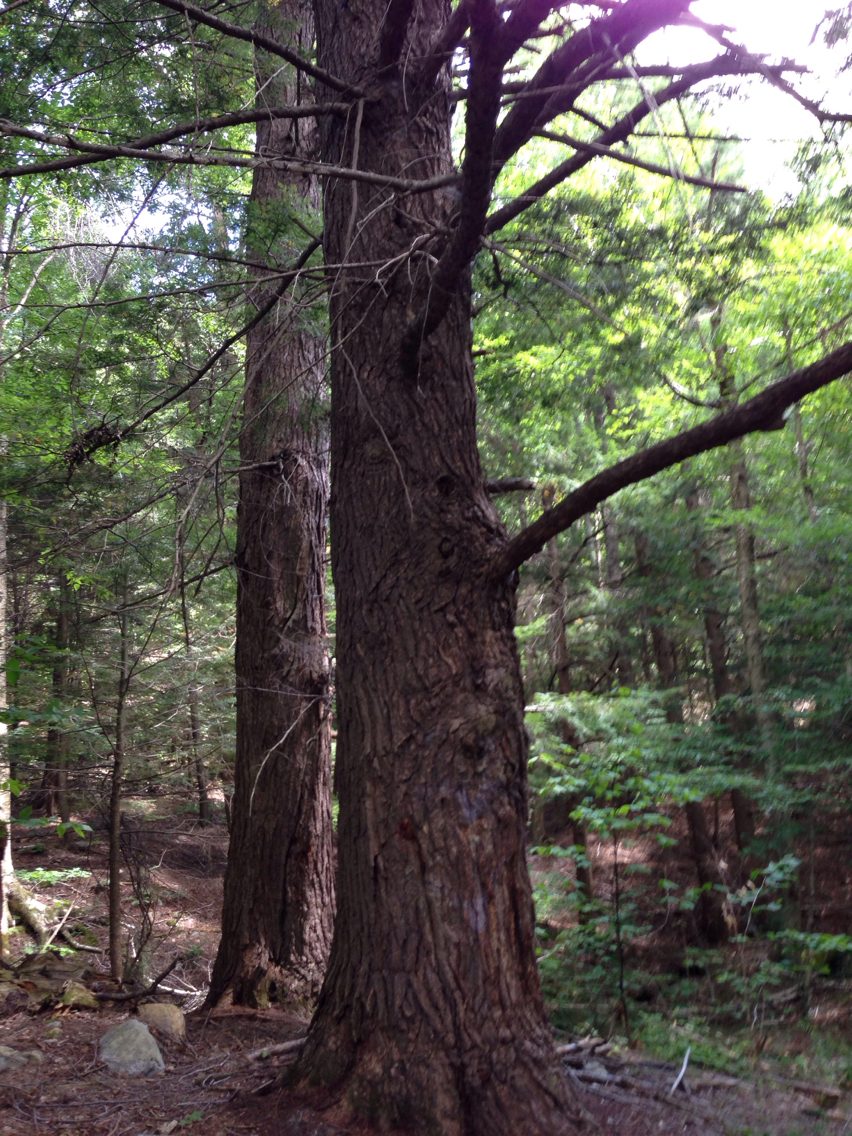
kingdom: Plantae
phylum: Tracheophyta
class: Pinopsida
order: Pinales
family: Pinaceae
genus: Tsuga
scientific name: Tsuga canadensis
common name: Eastern hemlock
